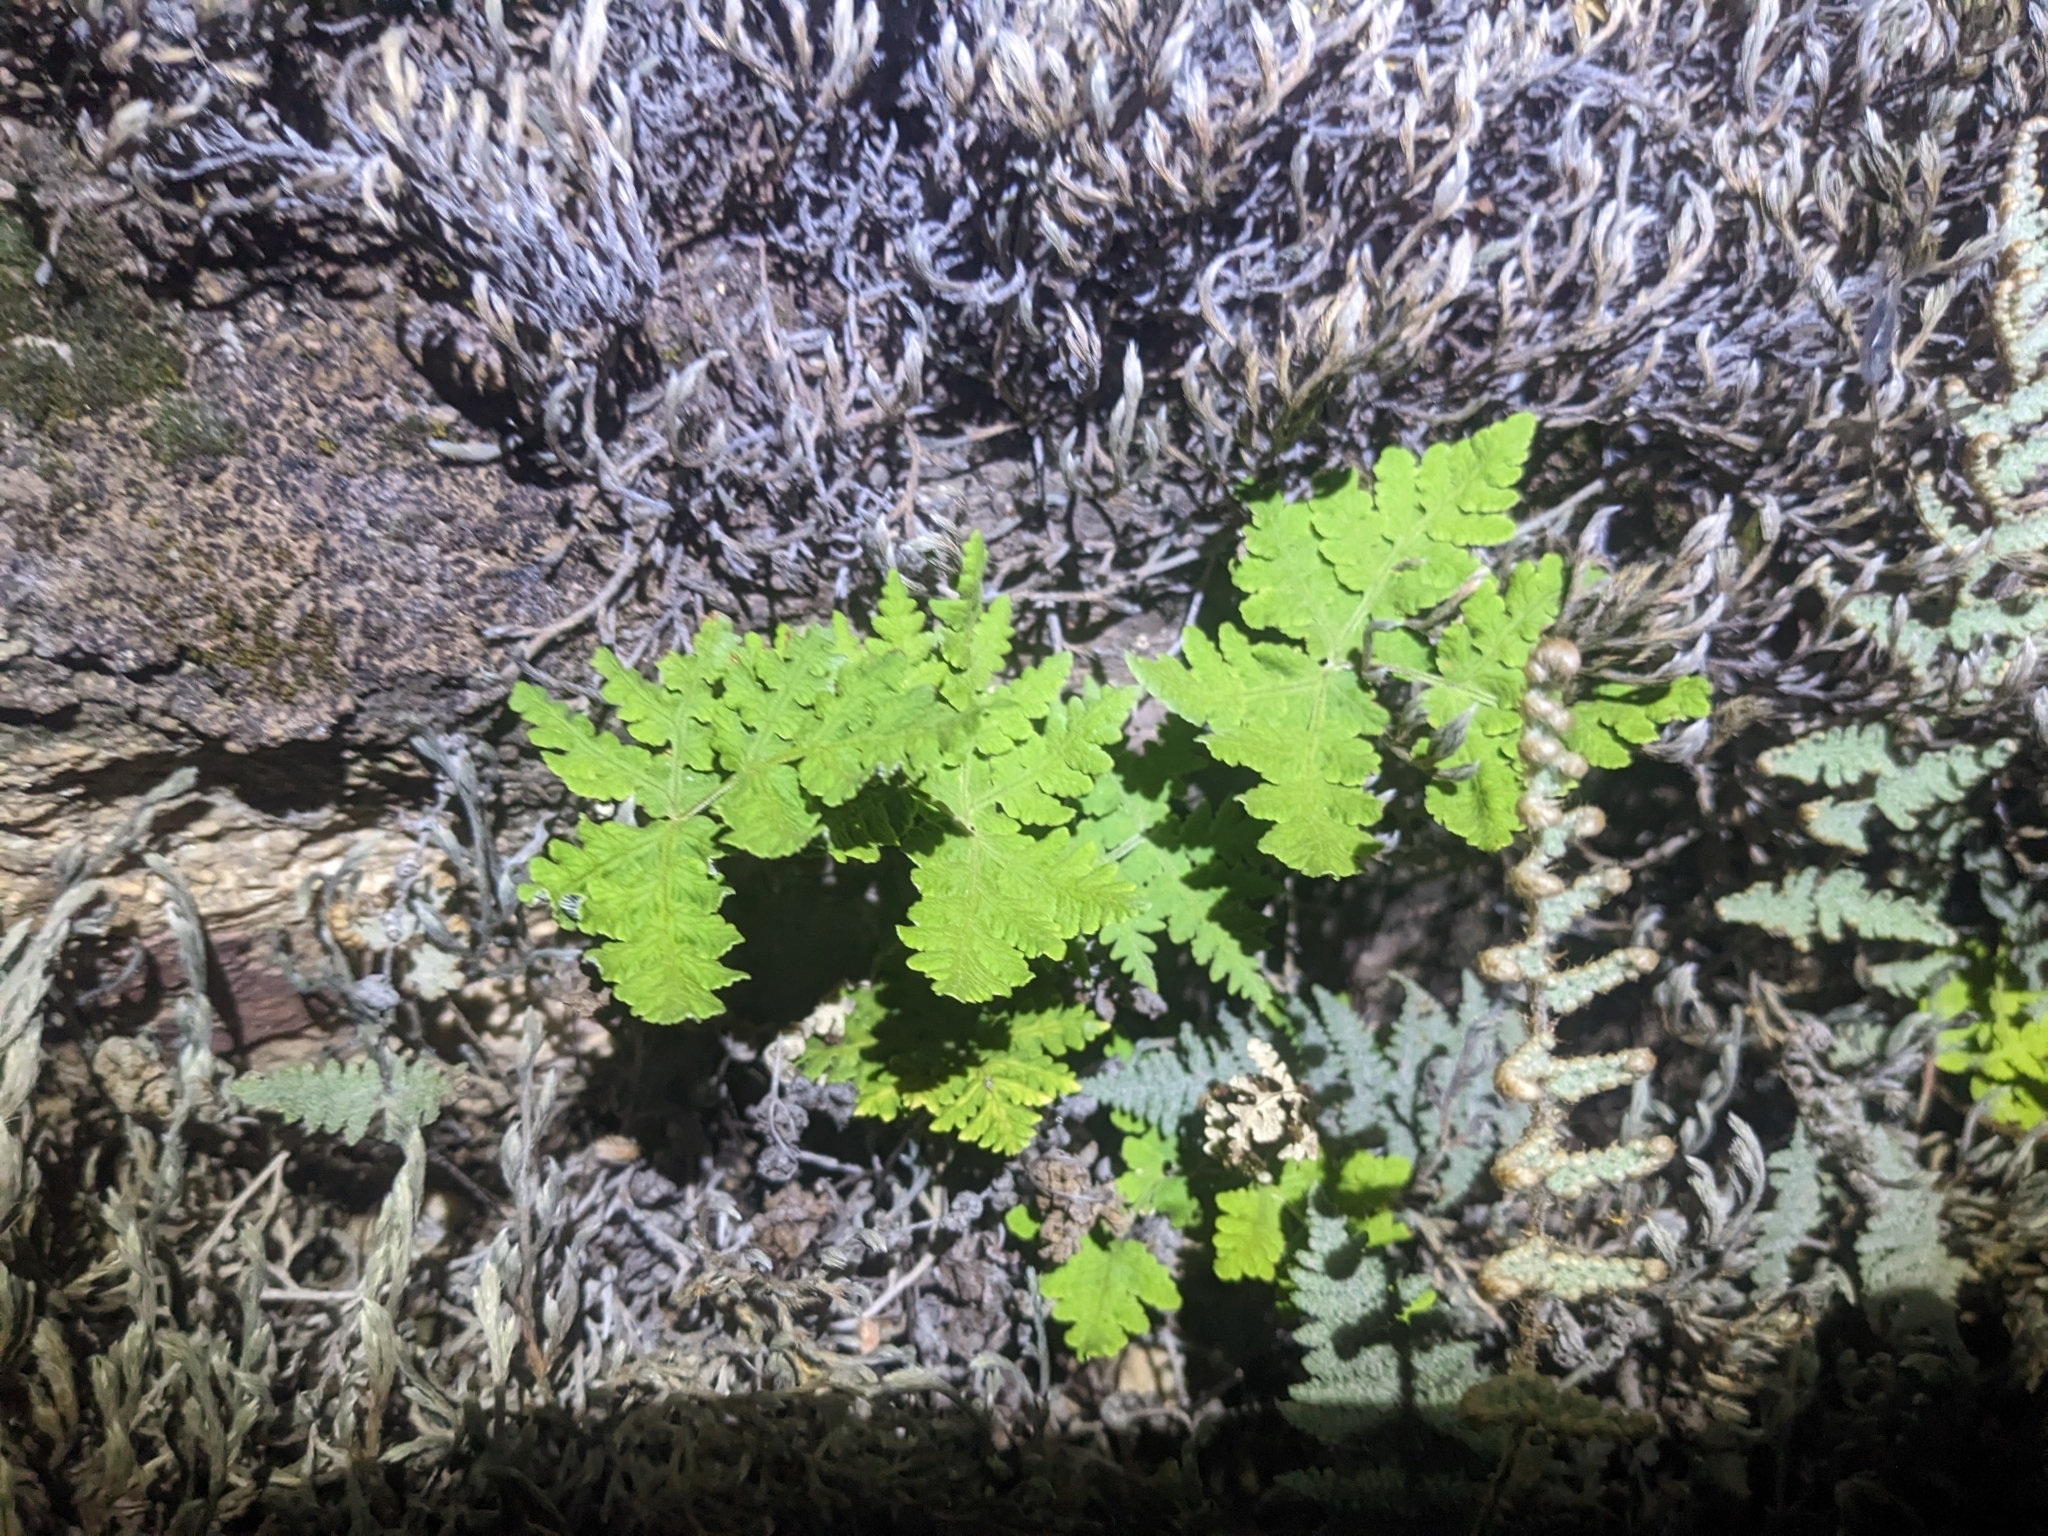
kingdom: Plantae
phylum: Tracheophyta
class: Polypodiopsida
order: Polypodiales
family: Pteridaceae
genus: Pentagramma
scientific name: Pentagramma maxonii
